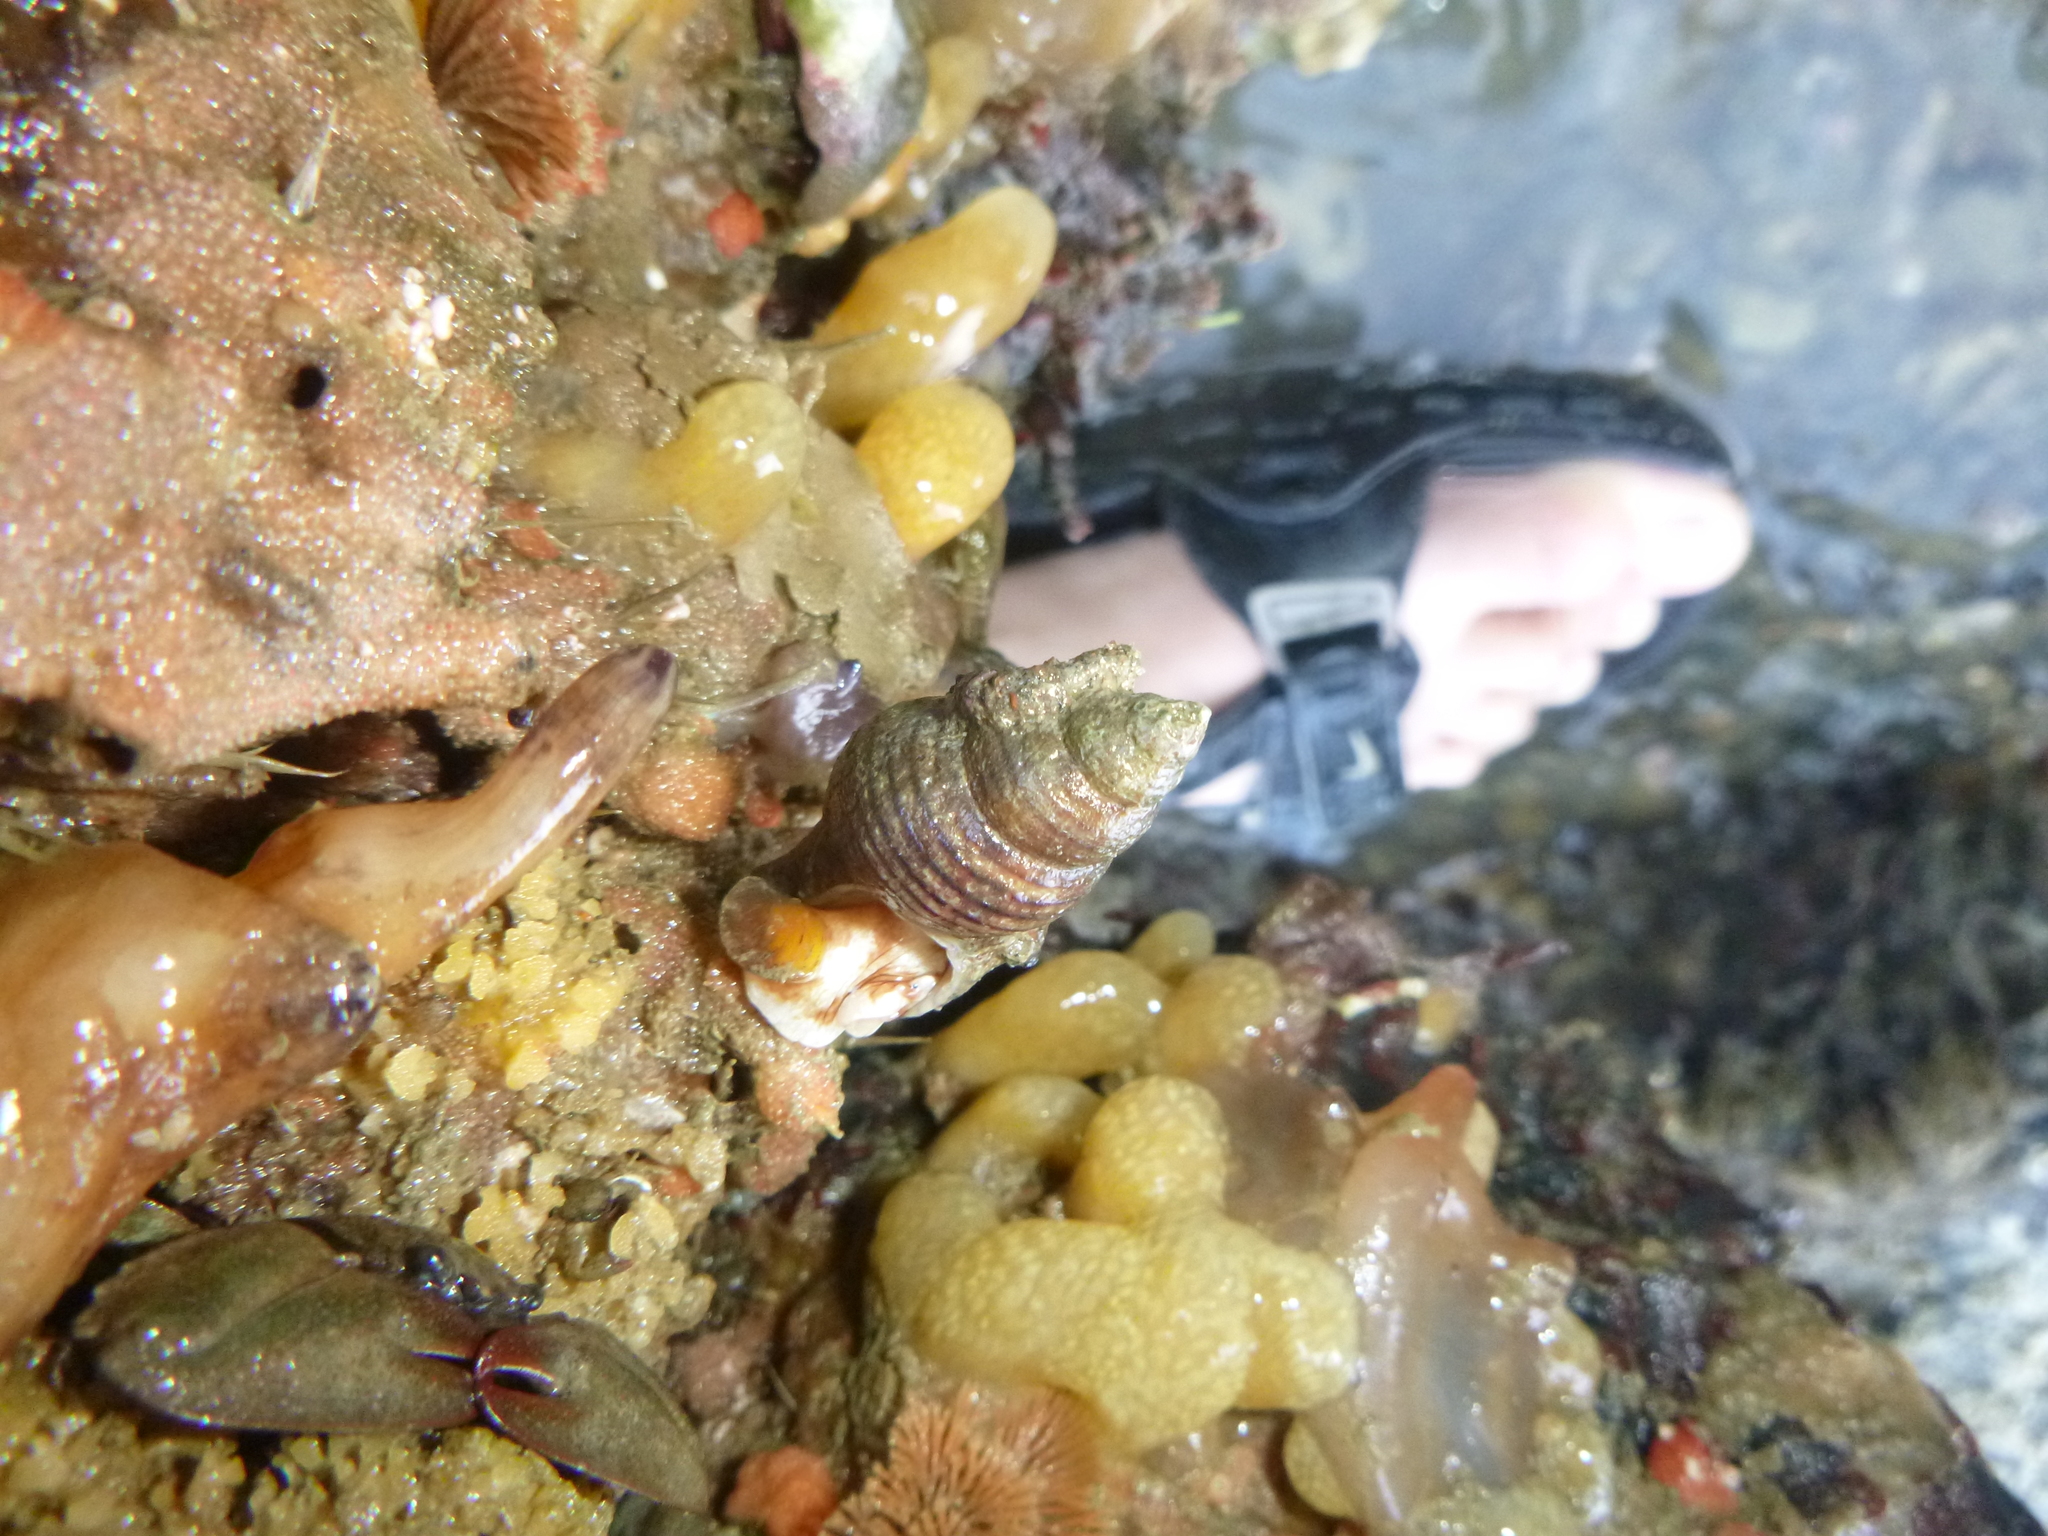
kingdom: Animalia
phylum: Mollusca
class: Gastropoda
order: Neogastropoda
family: Tudiclidae
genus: Buccinulum
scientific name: Buccinulum linea
